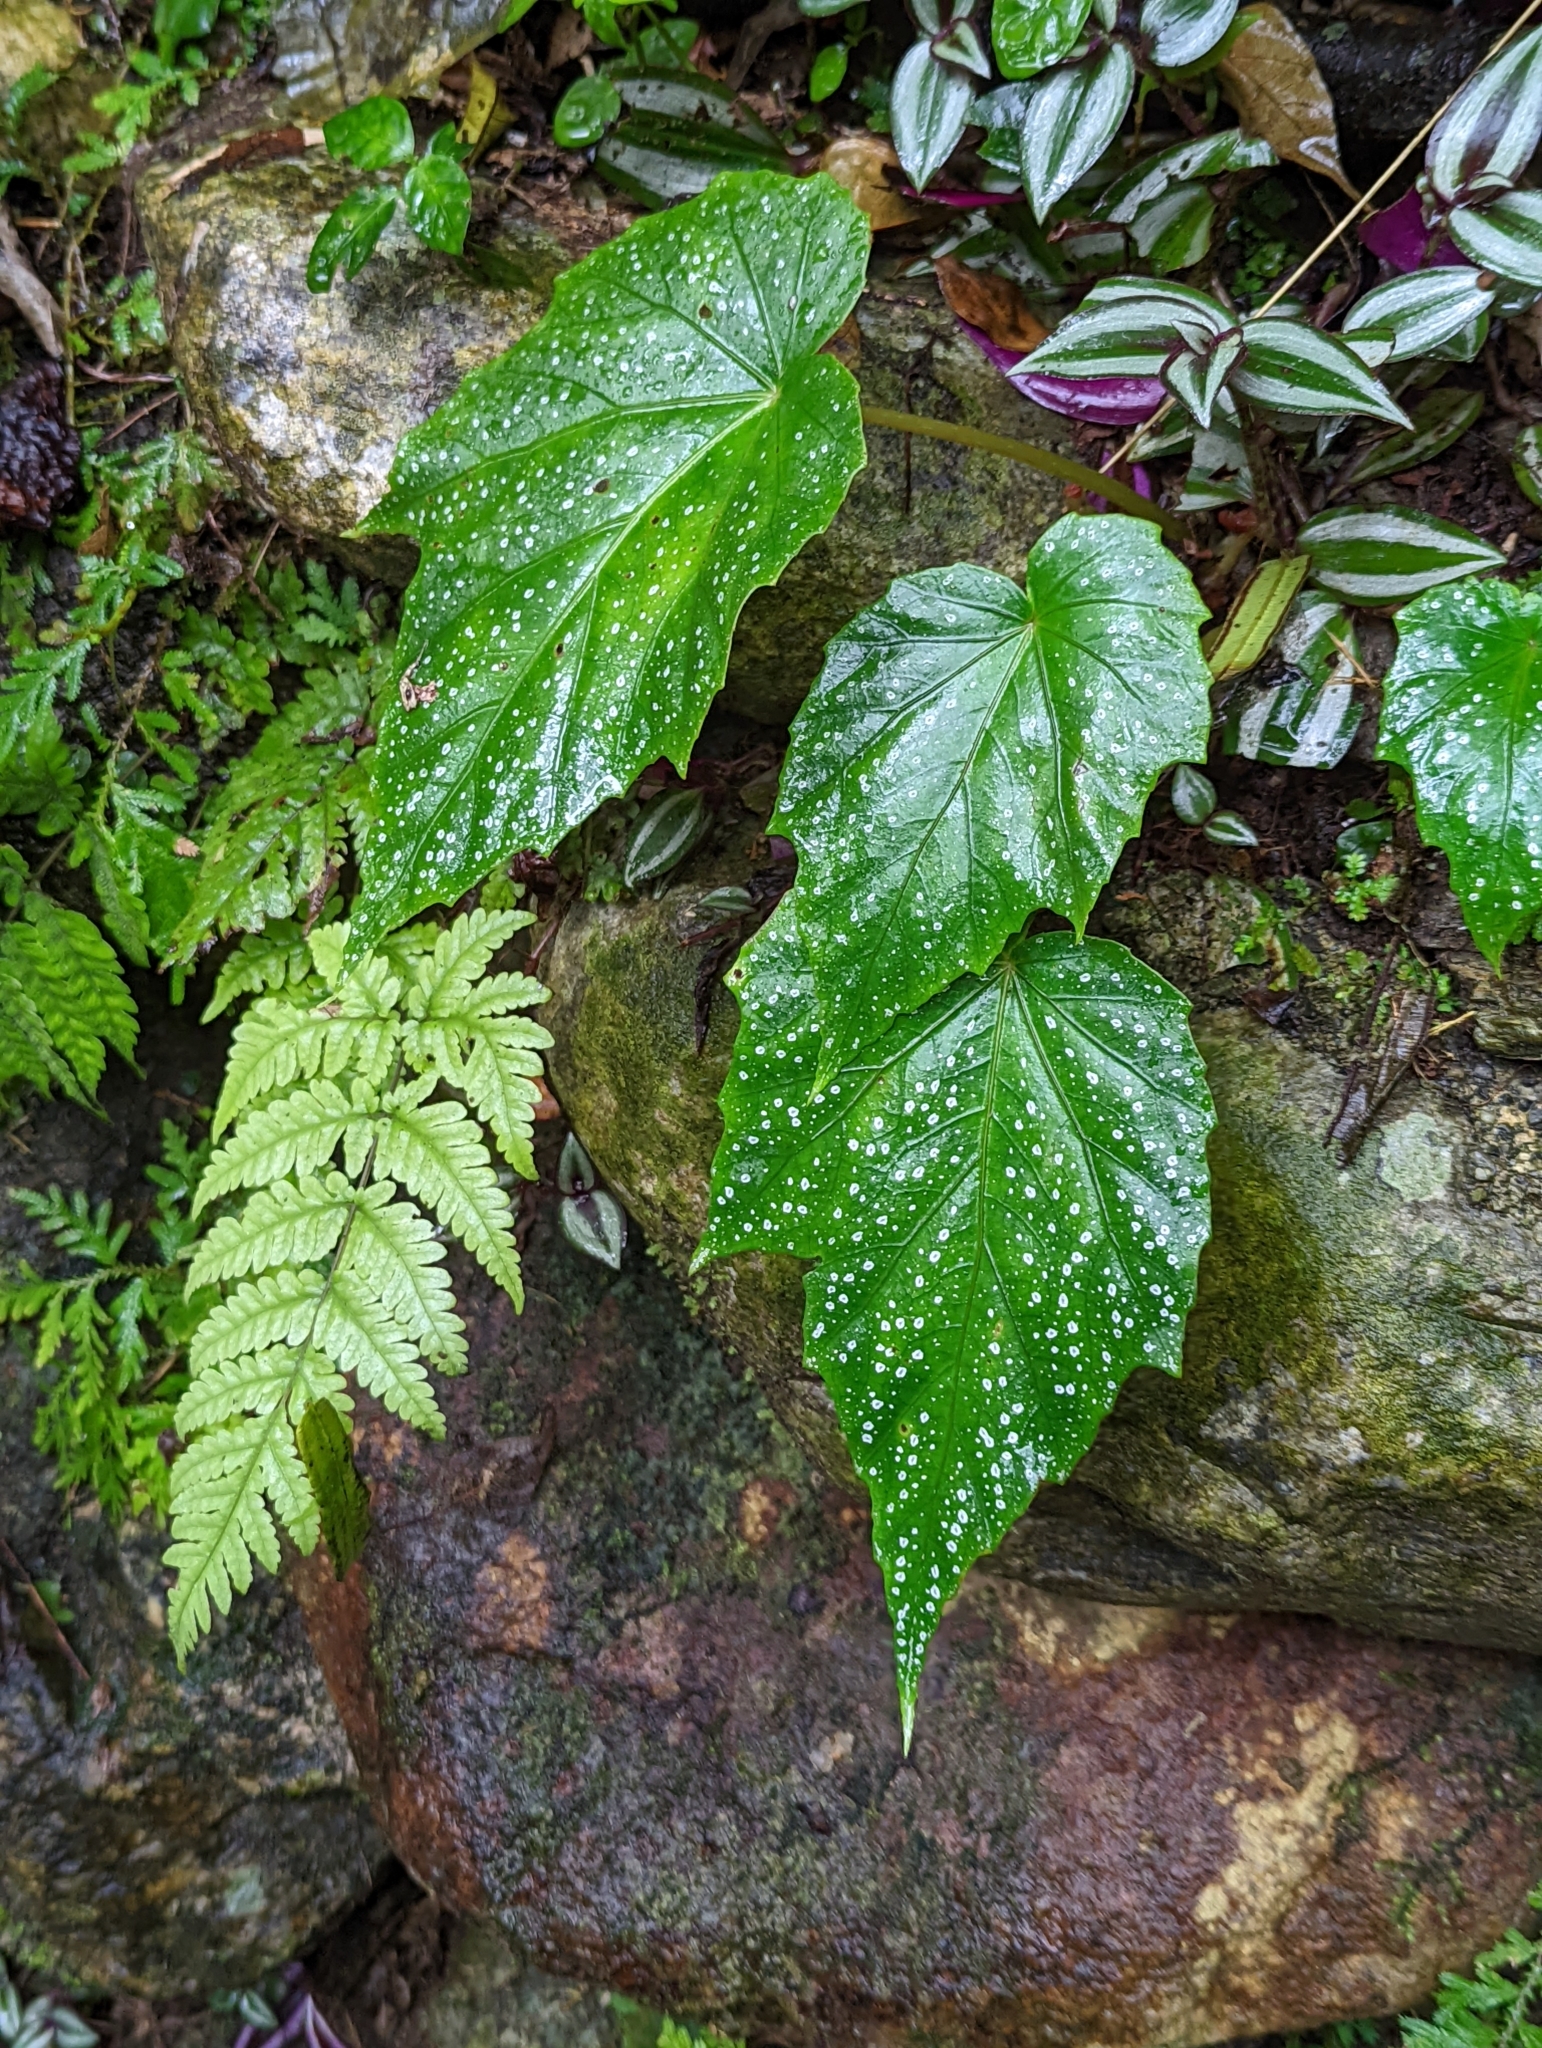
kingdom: Plantae
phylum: Tracheophyta
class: Magnoliopsida
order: Cucurbitales
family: Begoniaceae
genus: Begonia
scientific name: Begonia formosana
